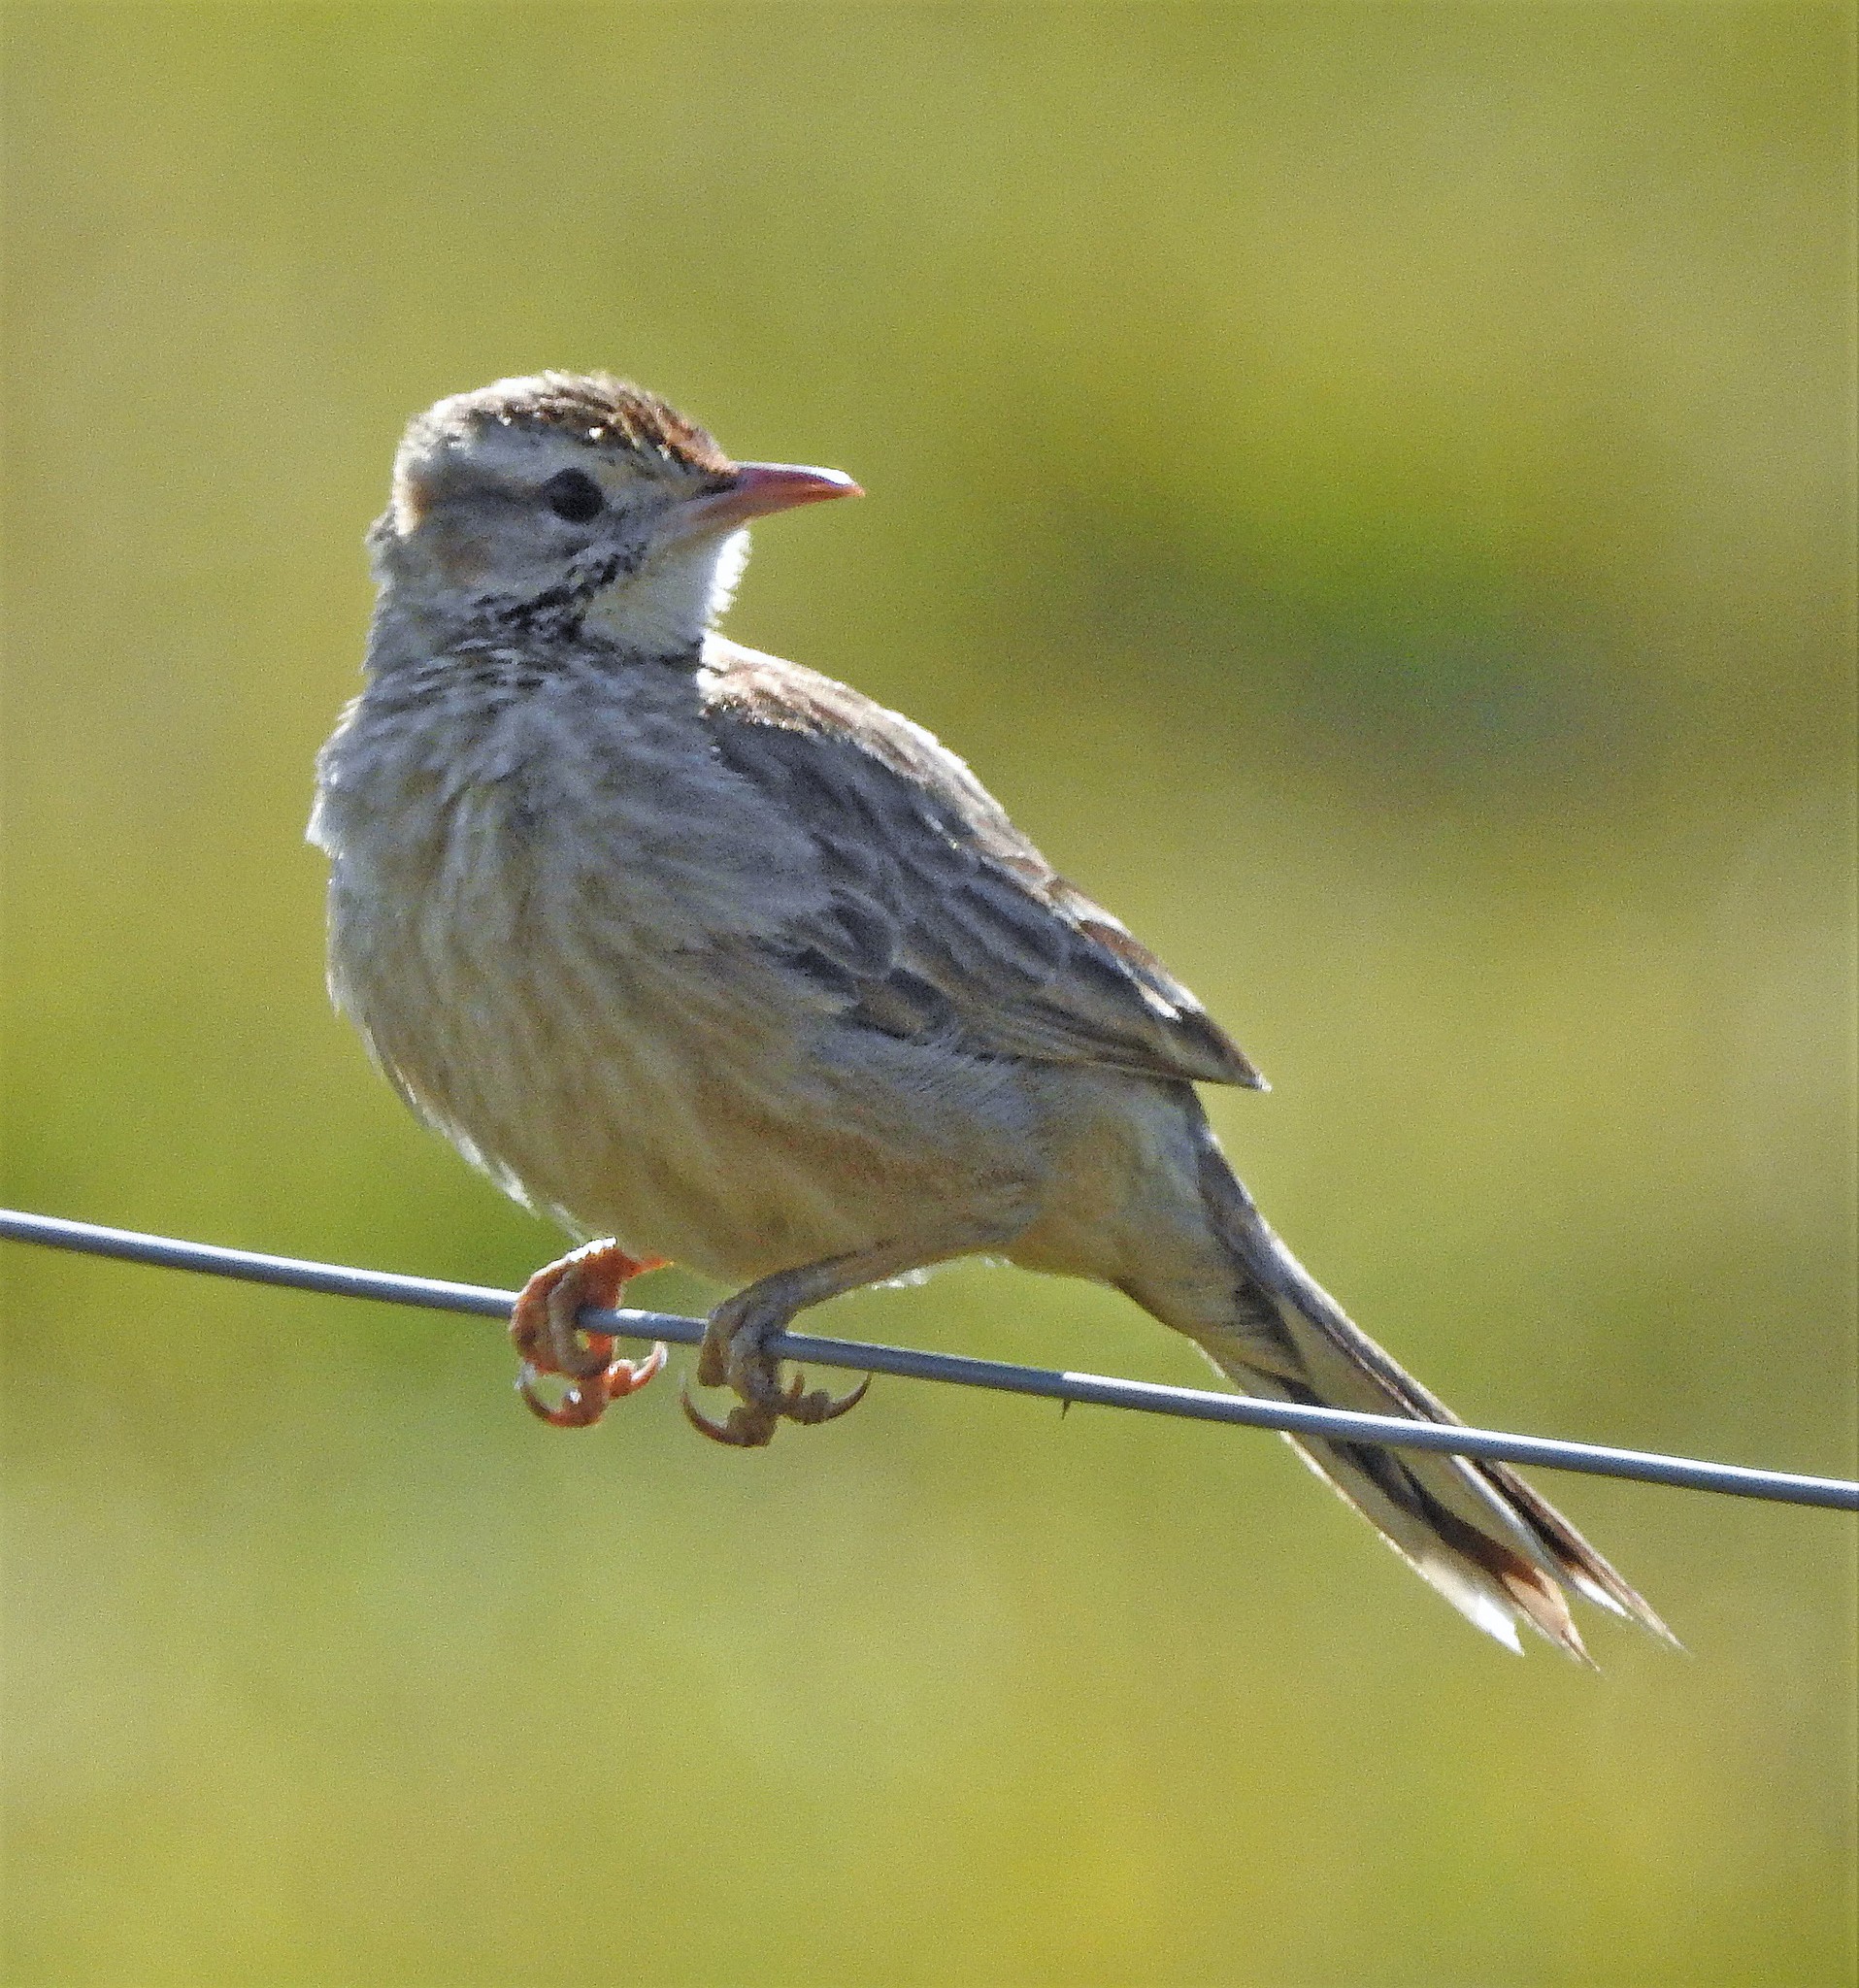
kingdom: Animalia
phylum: Chordata
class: Aves
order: Passeriformes
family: Furnariidae
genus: Anumbius
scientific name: Anumbius annumbi
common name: Firewood-gatherer
